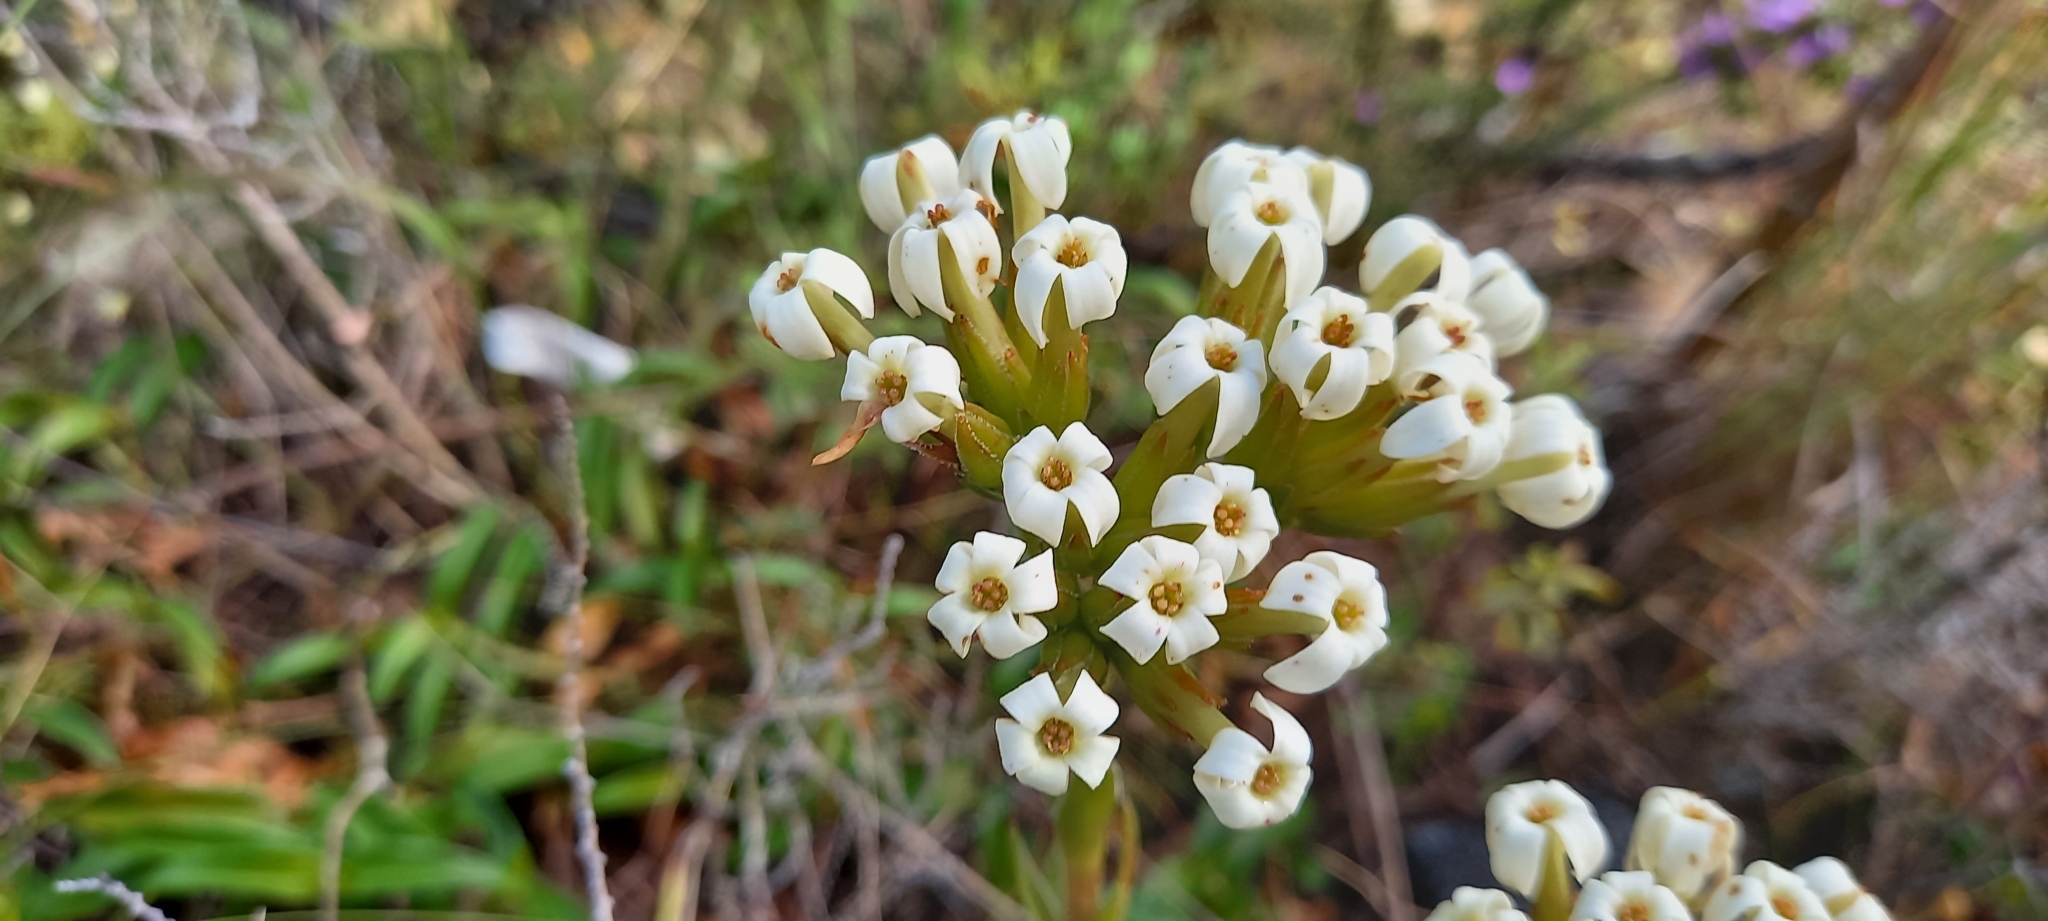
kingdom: Plantae
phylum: Tracheophyta
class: Magnoliopsida
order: Saxifragales
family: Crassulaceae
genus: Crassula
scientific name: Crassula fascicularis
